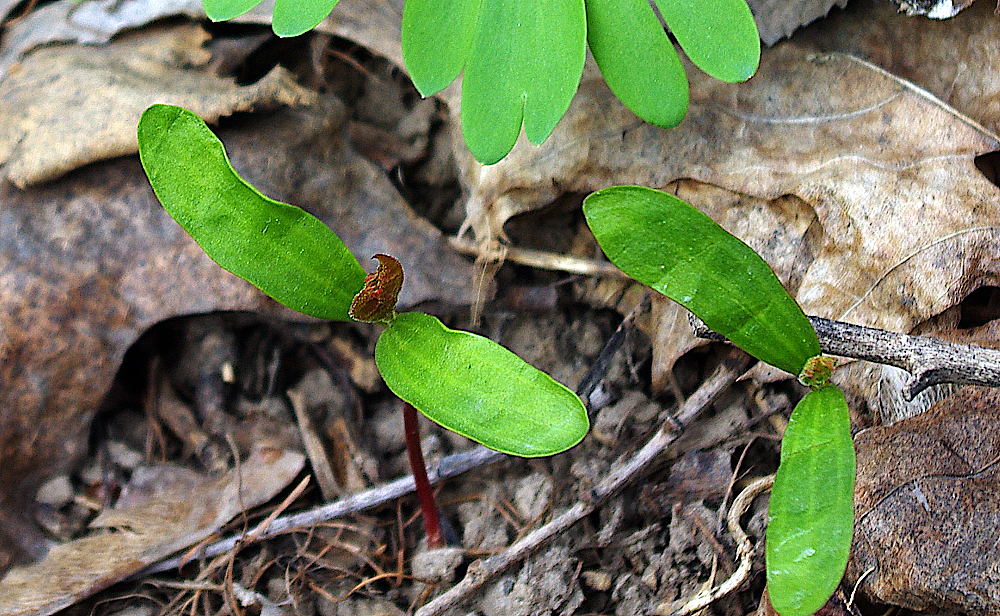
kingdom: Plantae
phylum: Tracheophyta
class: Magnoliopsida
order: Sapindales
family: Sapindaceae
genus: Acer
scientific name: Acer platanoides
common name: Norway maple
